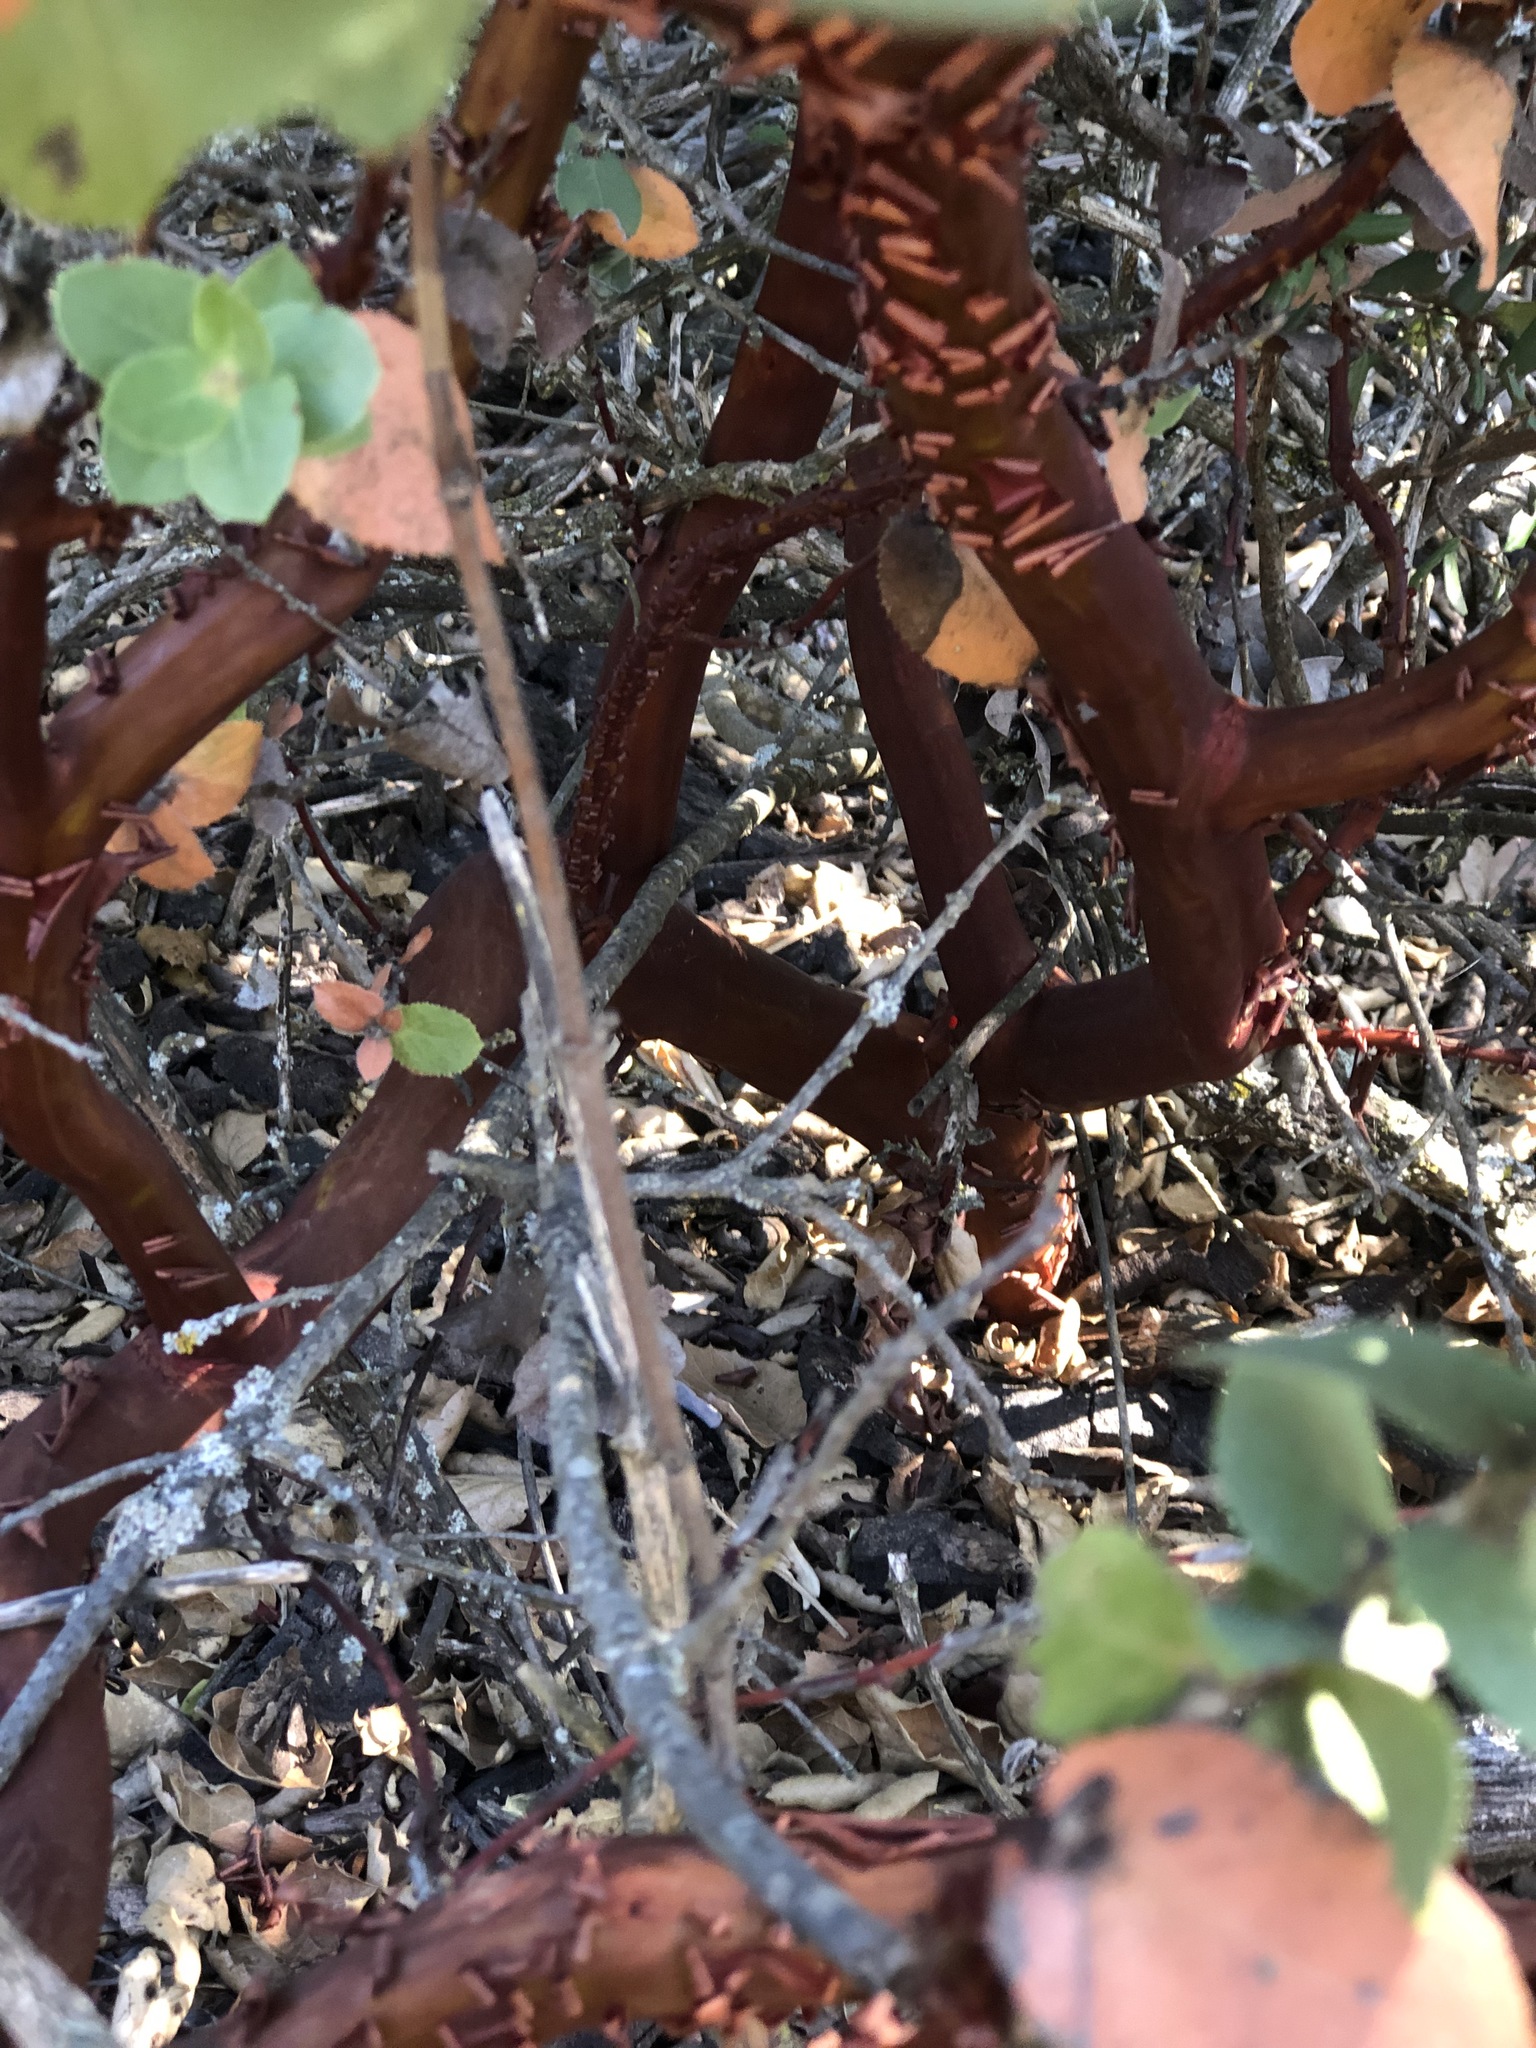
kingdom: Plantae
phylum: Tracheophyta
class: Magnoliopsida
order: Ericales
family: Ericaceae
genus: Arctostaphylos
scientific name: Arctostaphylos refugioensis
